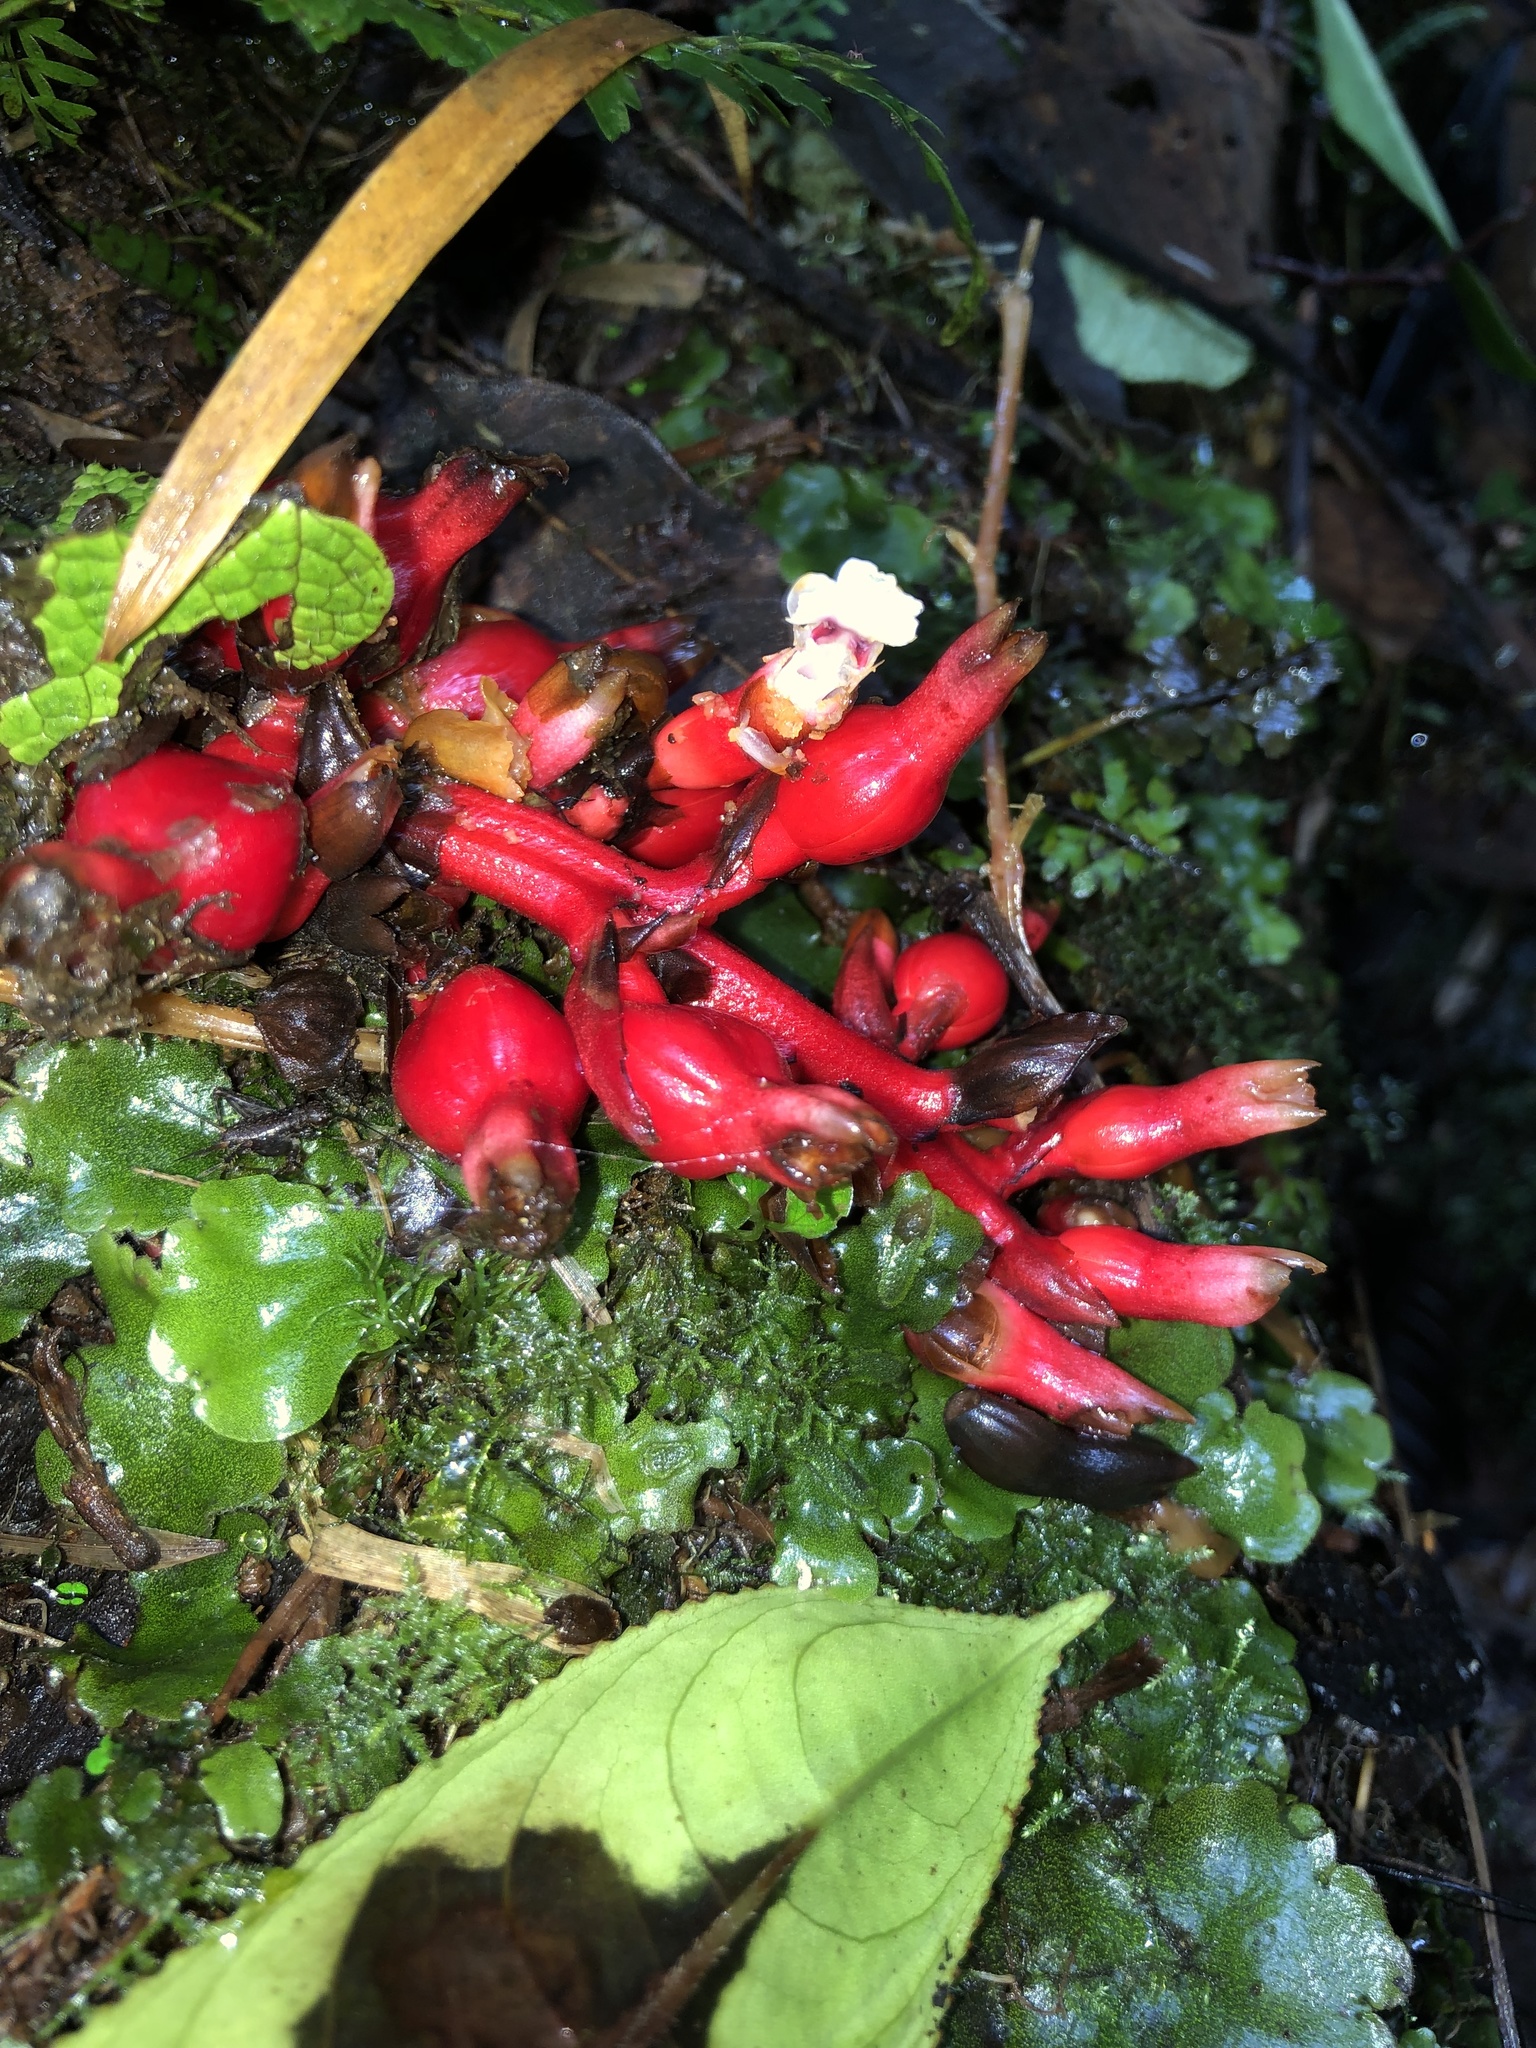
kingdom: Plantae
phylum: Tracheophyta
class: Liliopsida
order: Zingiberales
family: Zingiberaceae
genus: Renealmia
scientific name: Renealmia ligulata
